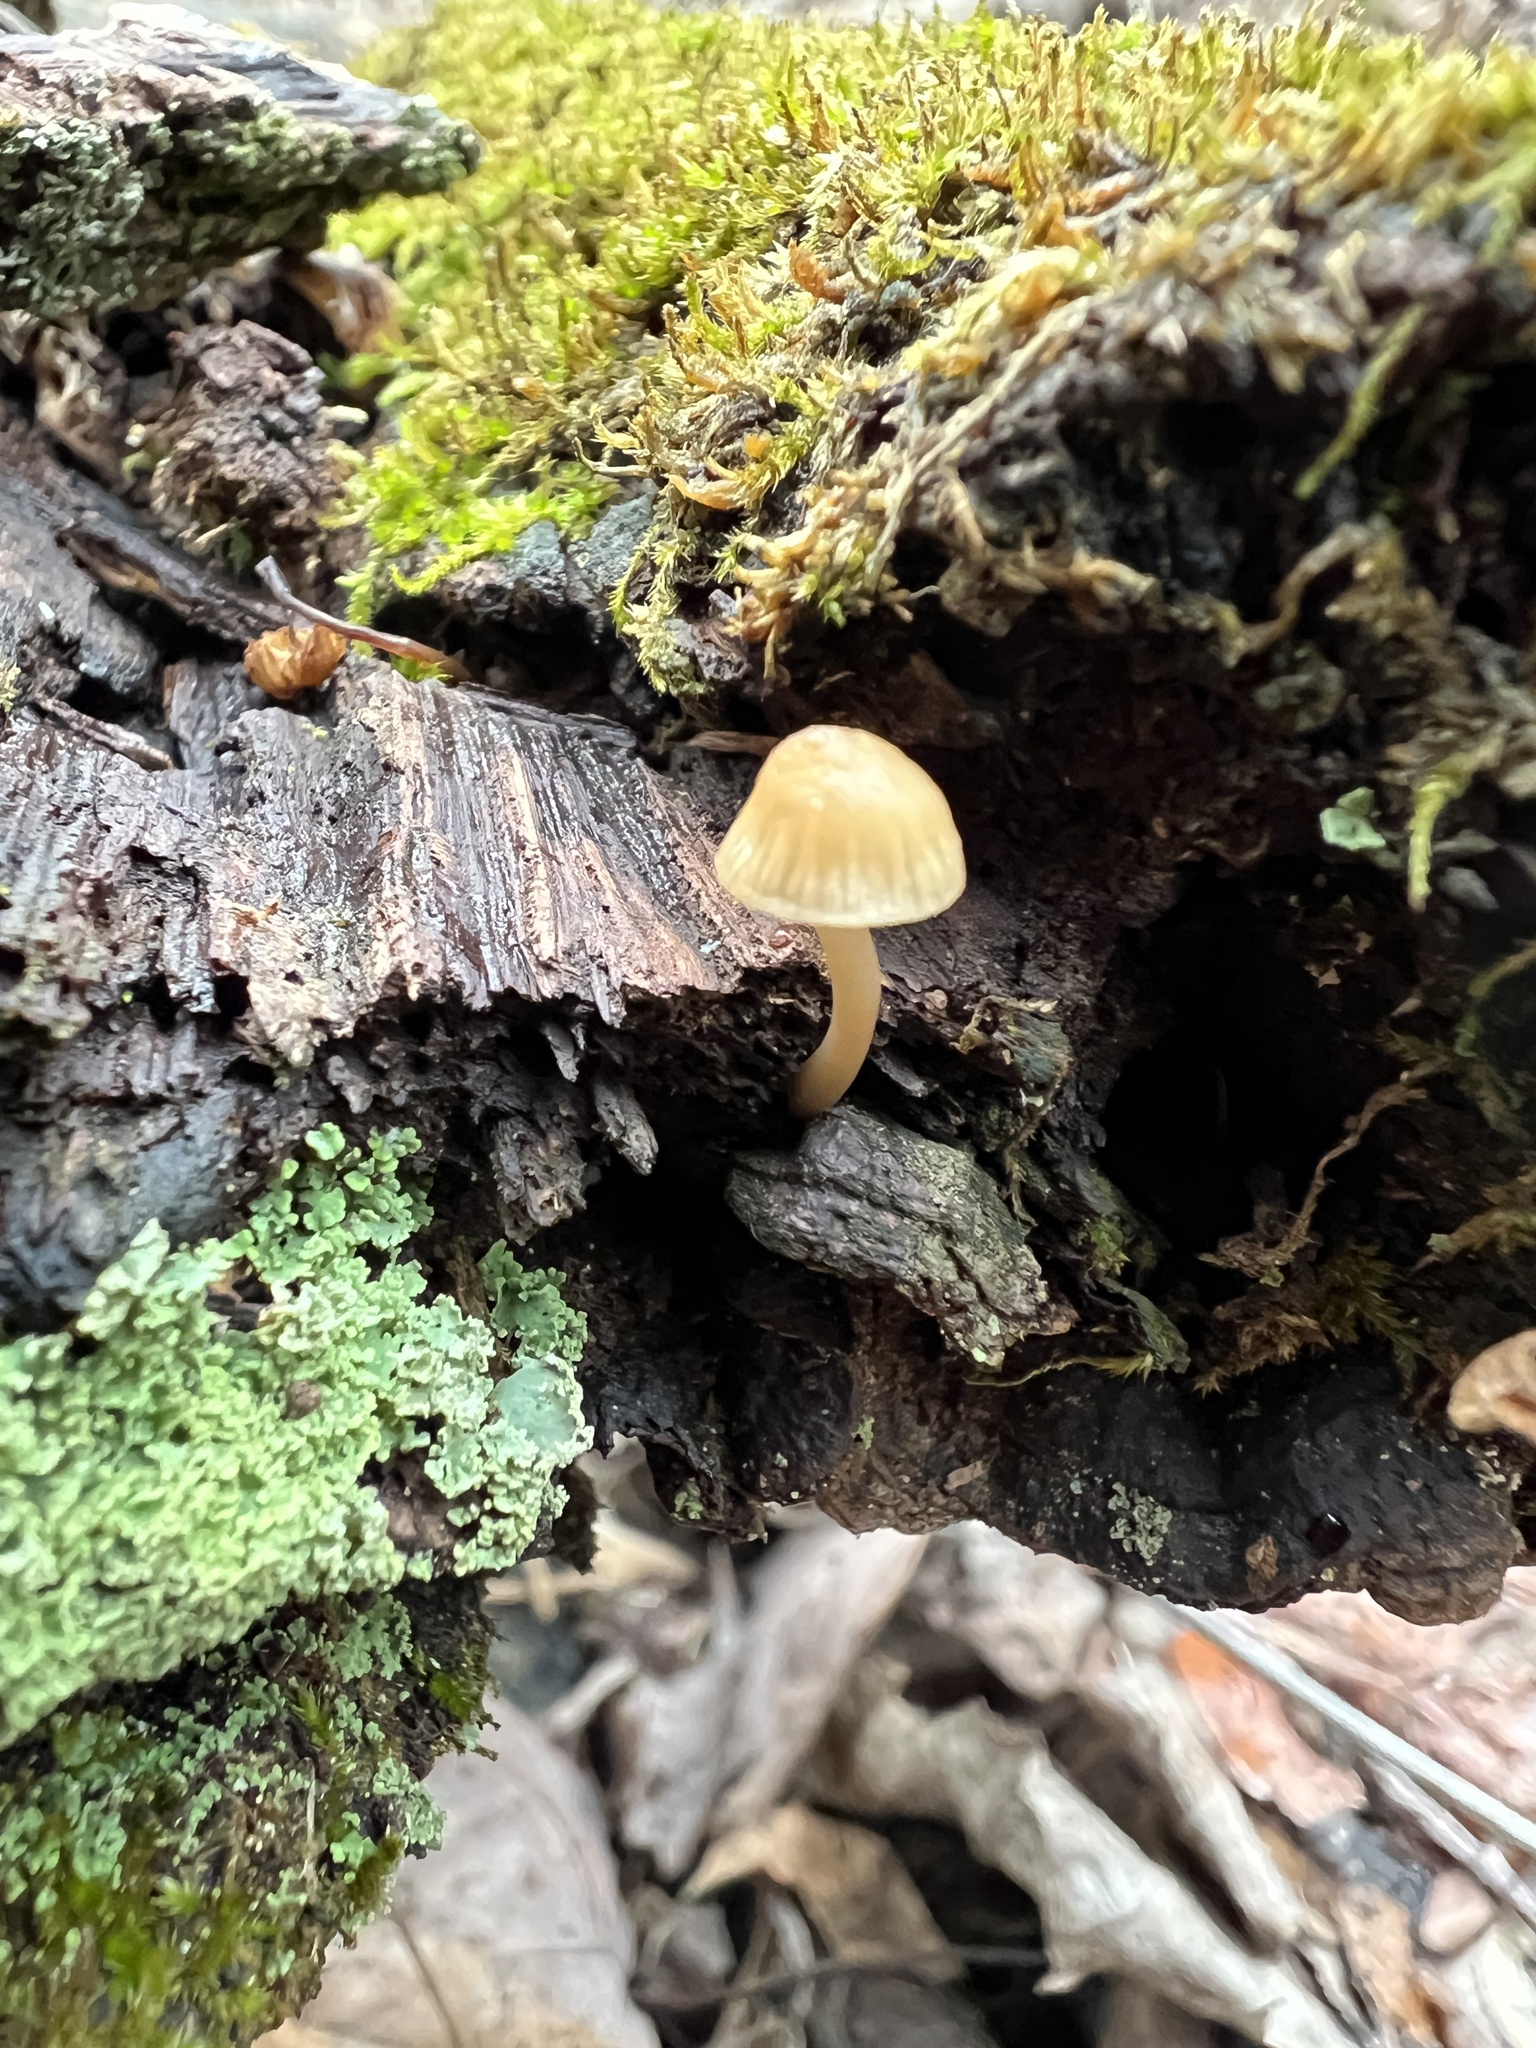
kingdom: Fungi
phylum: Basidiomycota
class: Agaricomycetes
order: Agaricales
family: Mycenaceae
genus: Mycena
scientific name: Mycena galericulata
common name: Bonnet mycena
